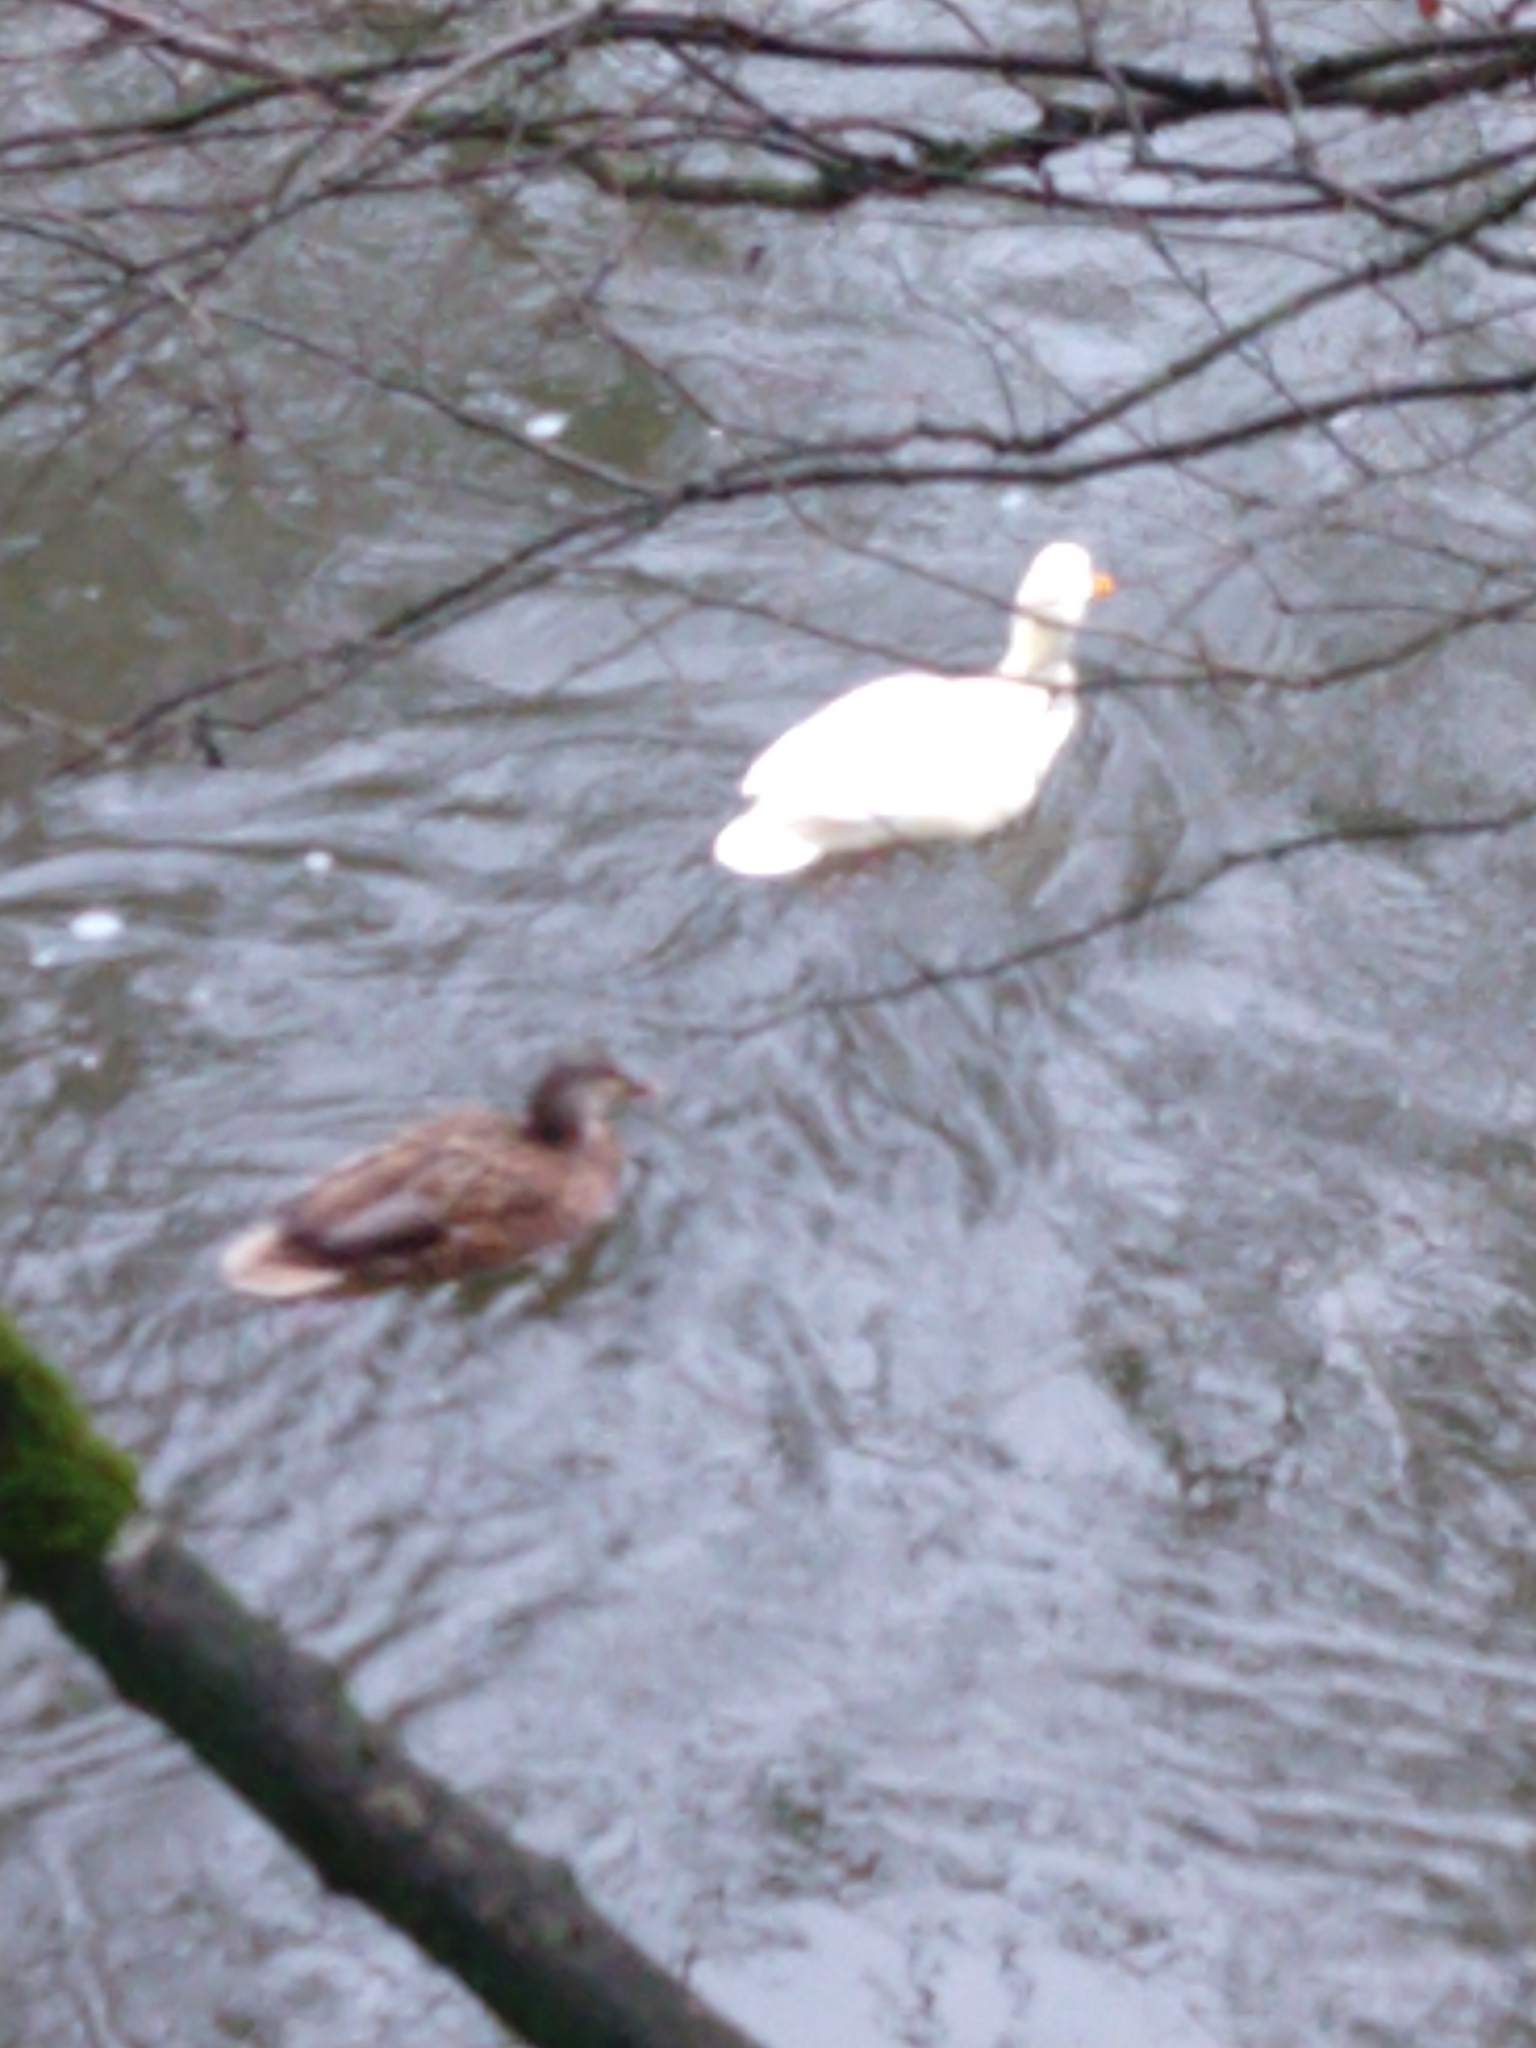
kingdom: Animalia
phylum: Chordata
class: Aves
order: Anseriformes
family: Anatidae
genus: Anas
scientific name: Anas platyrhynchos
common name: Mallard
